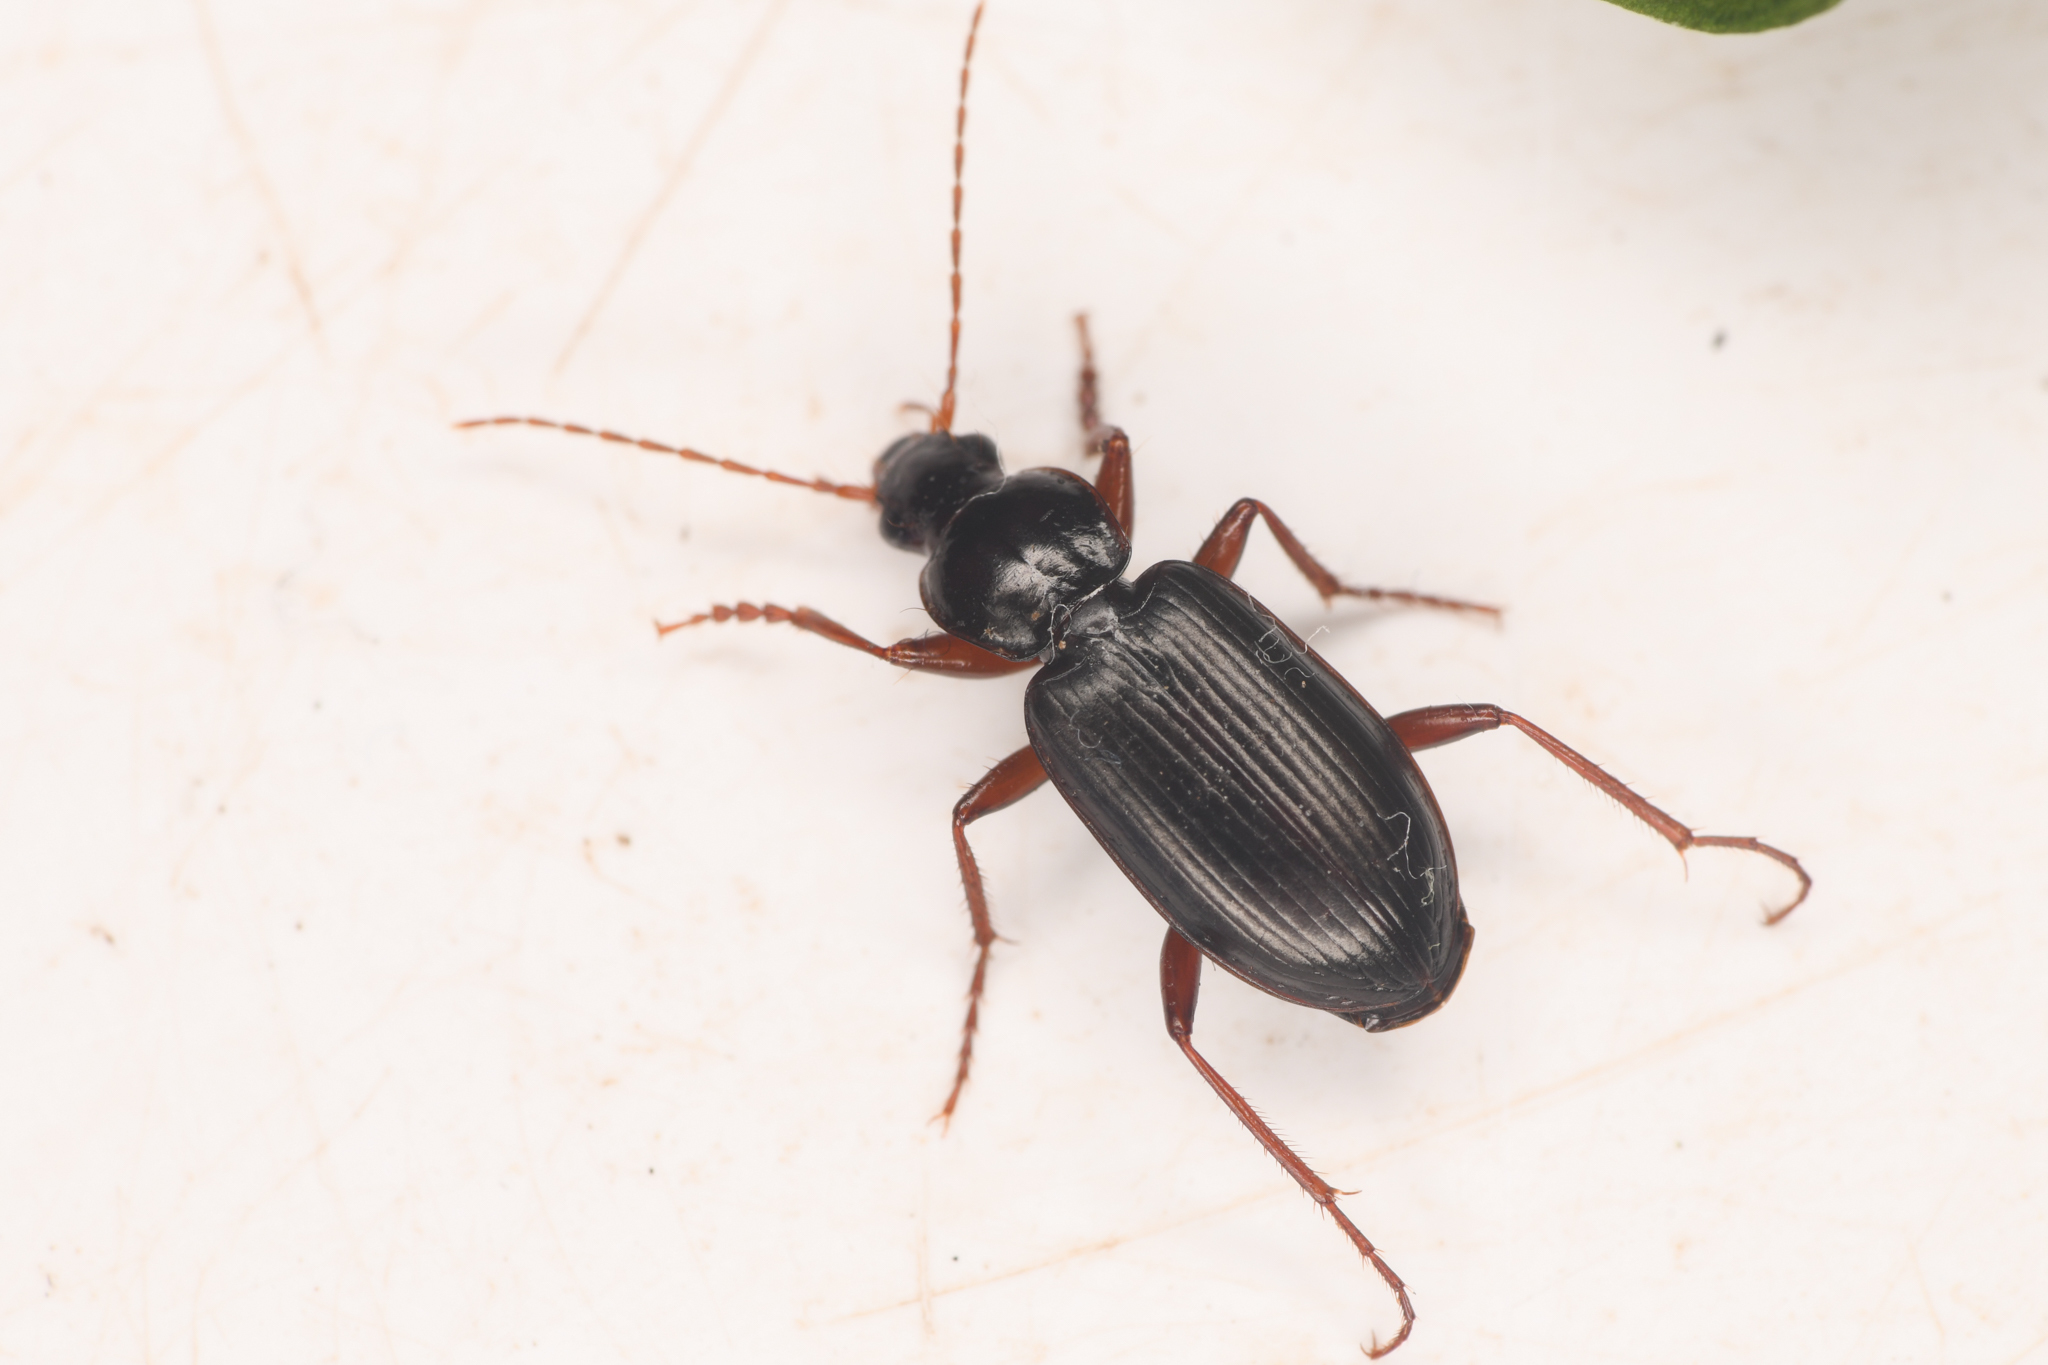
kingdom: Animalia
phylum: Arthropoda
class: Insecta
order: Coleoptera
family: Carabidae
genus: Calathus
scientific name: Calathus advena
